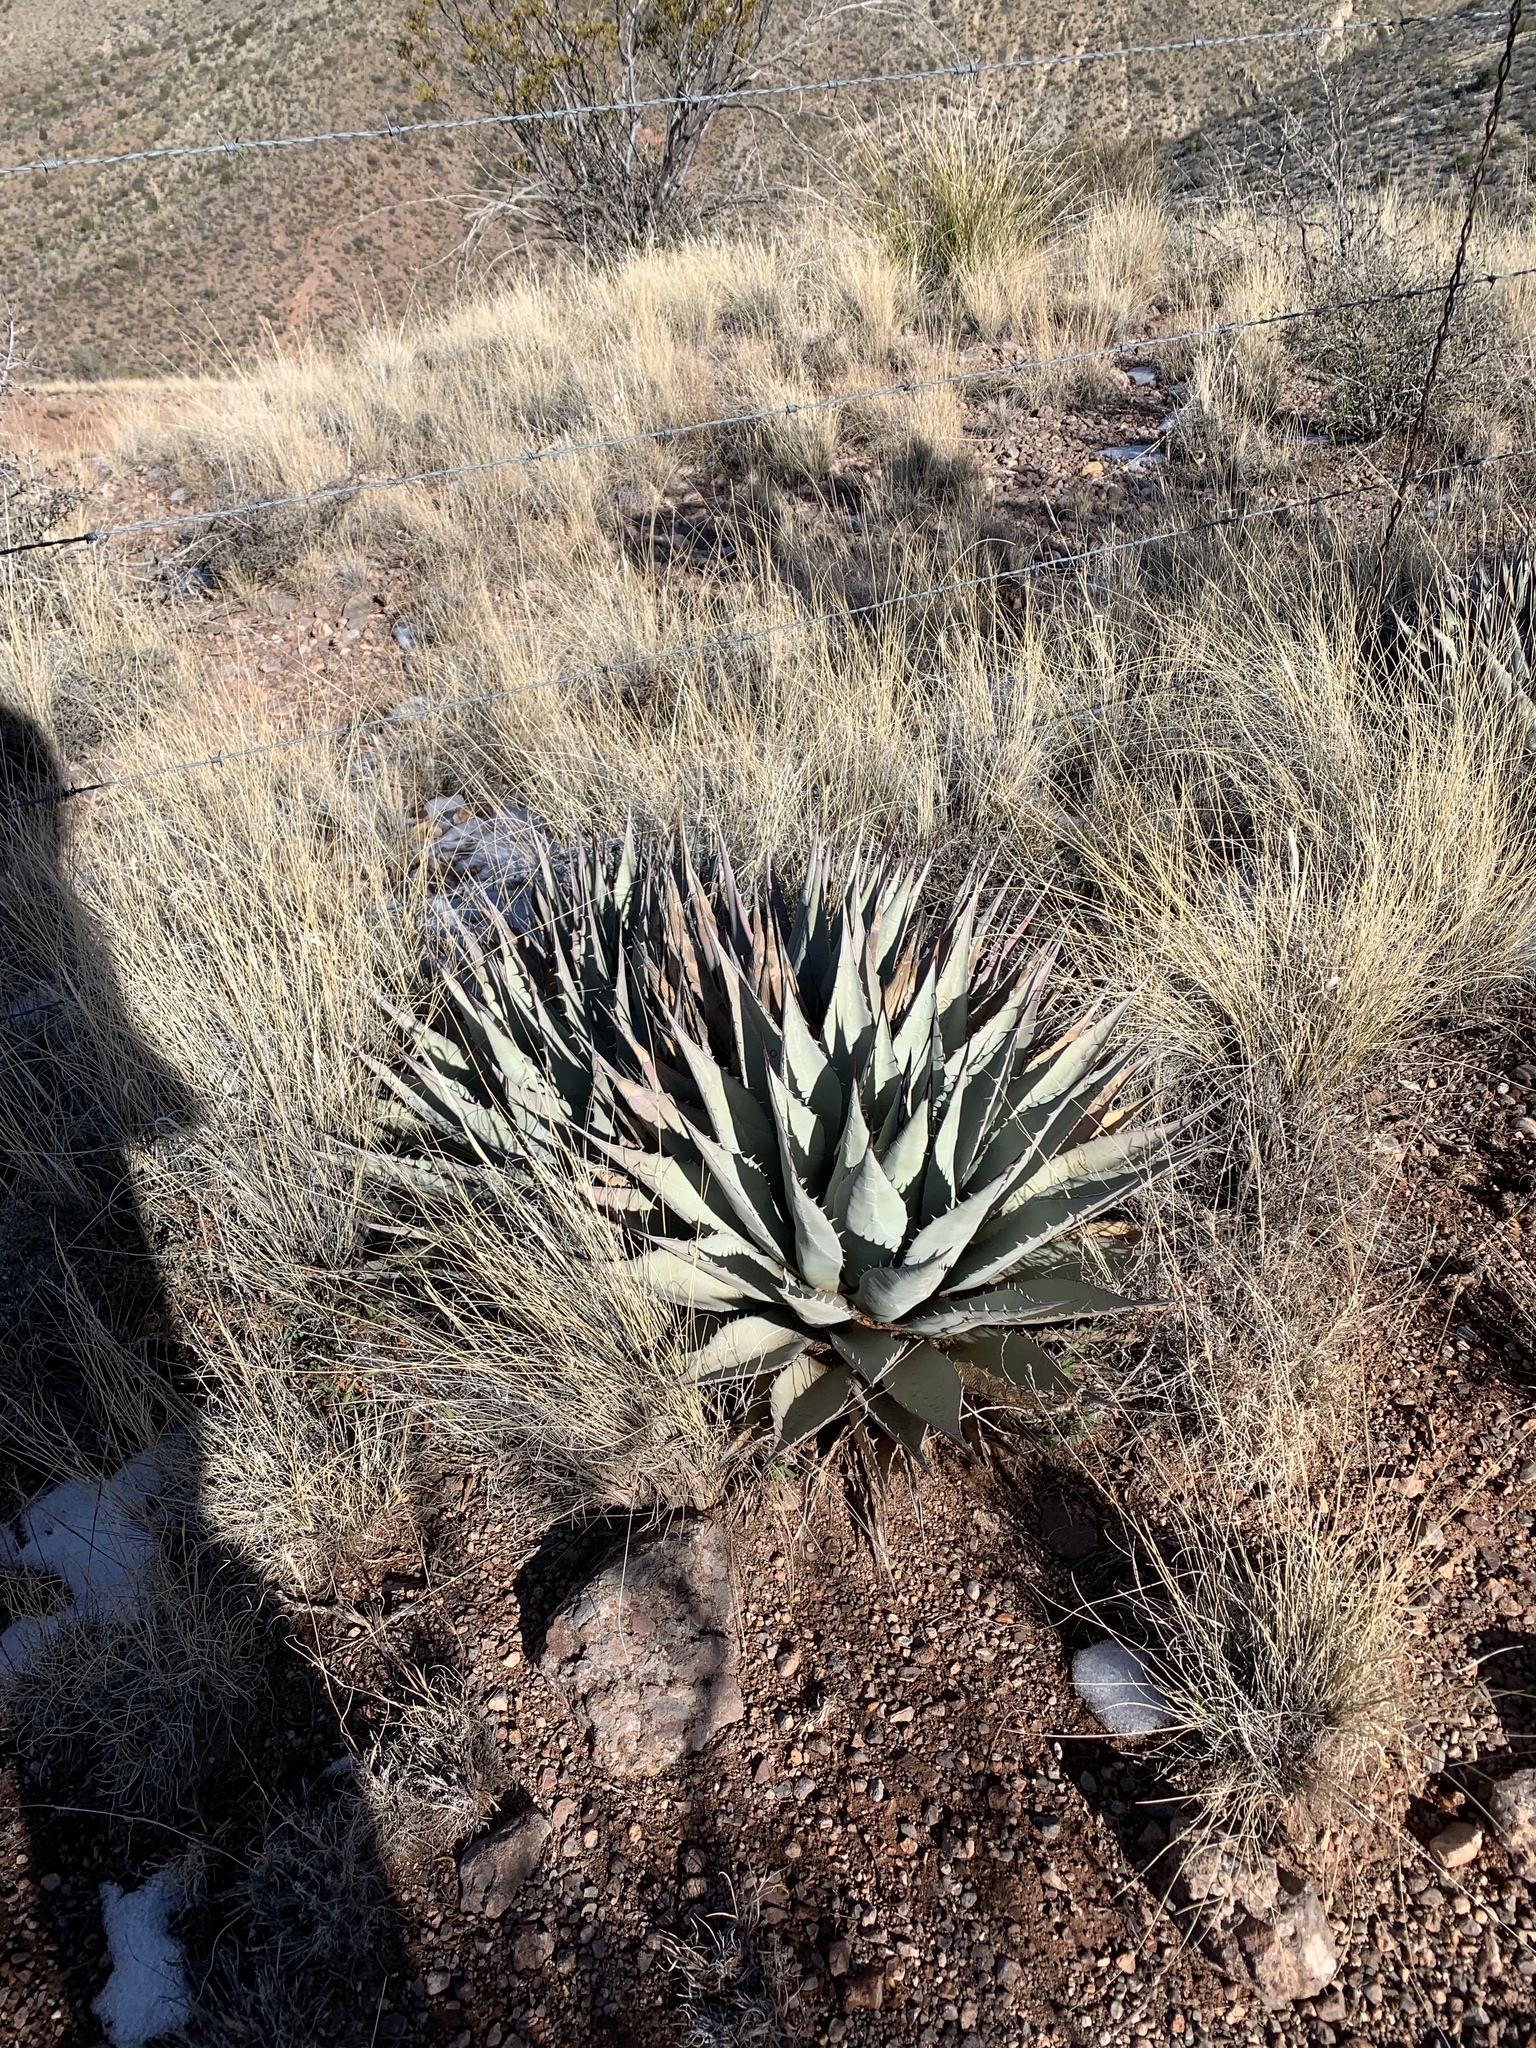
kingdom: Plantae
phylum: Tracheophyta
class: Liliopsida
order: Asparagales
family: Asparagaceae
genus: Agave
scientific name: Agave parryi
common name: Parry's agave
